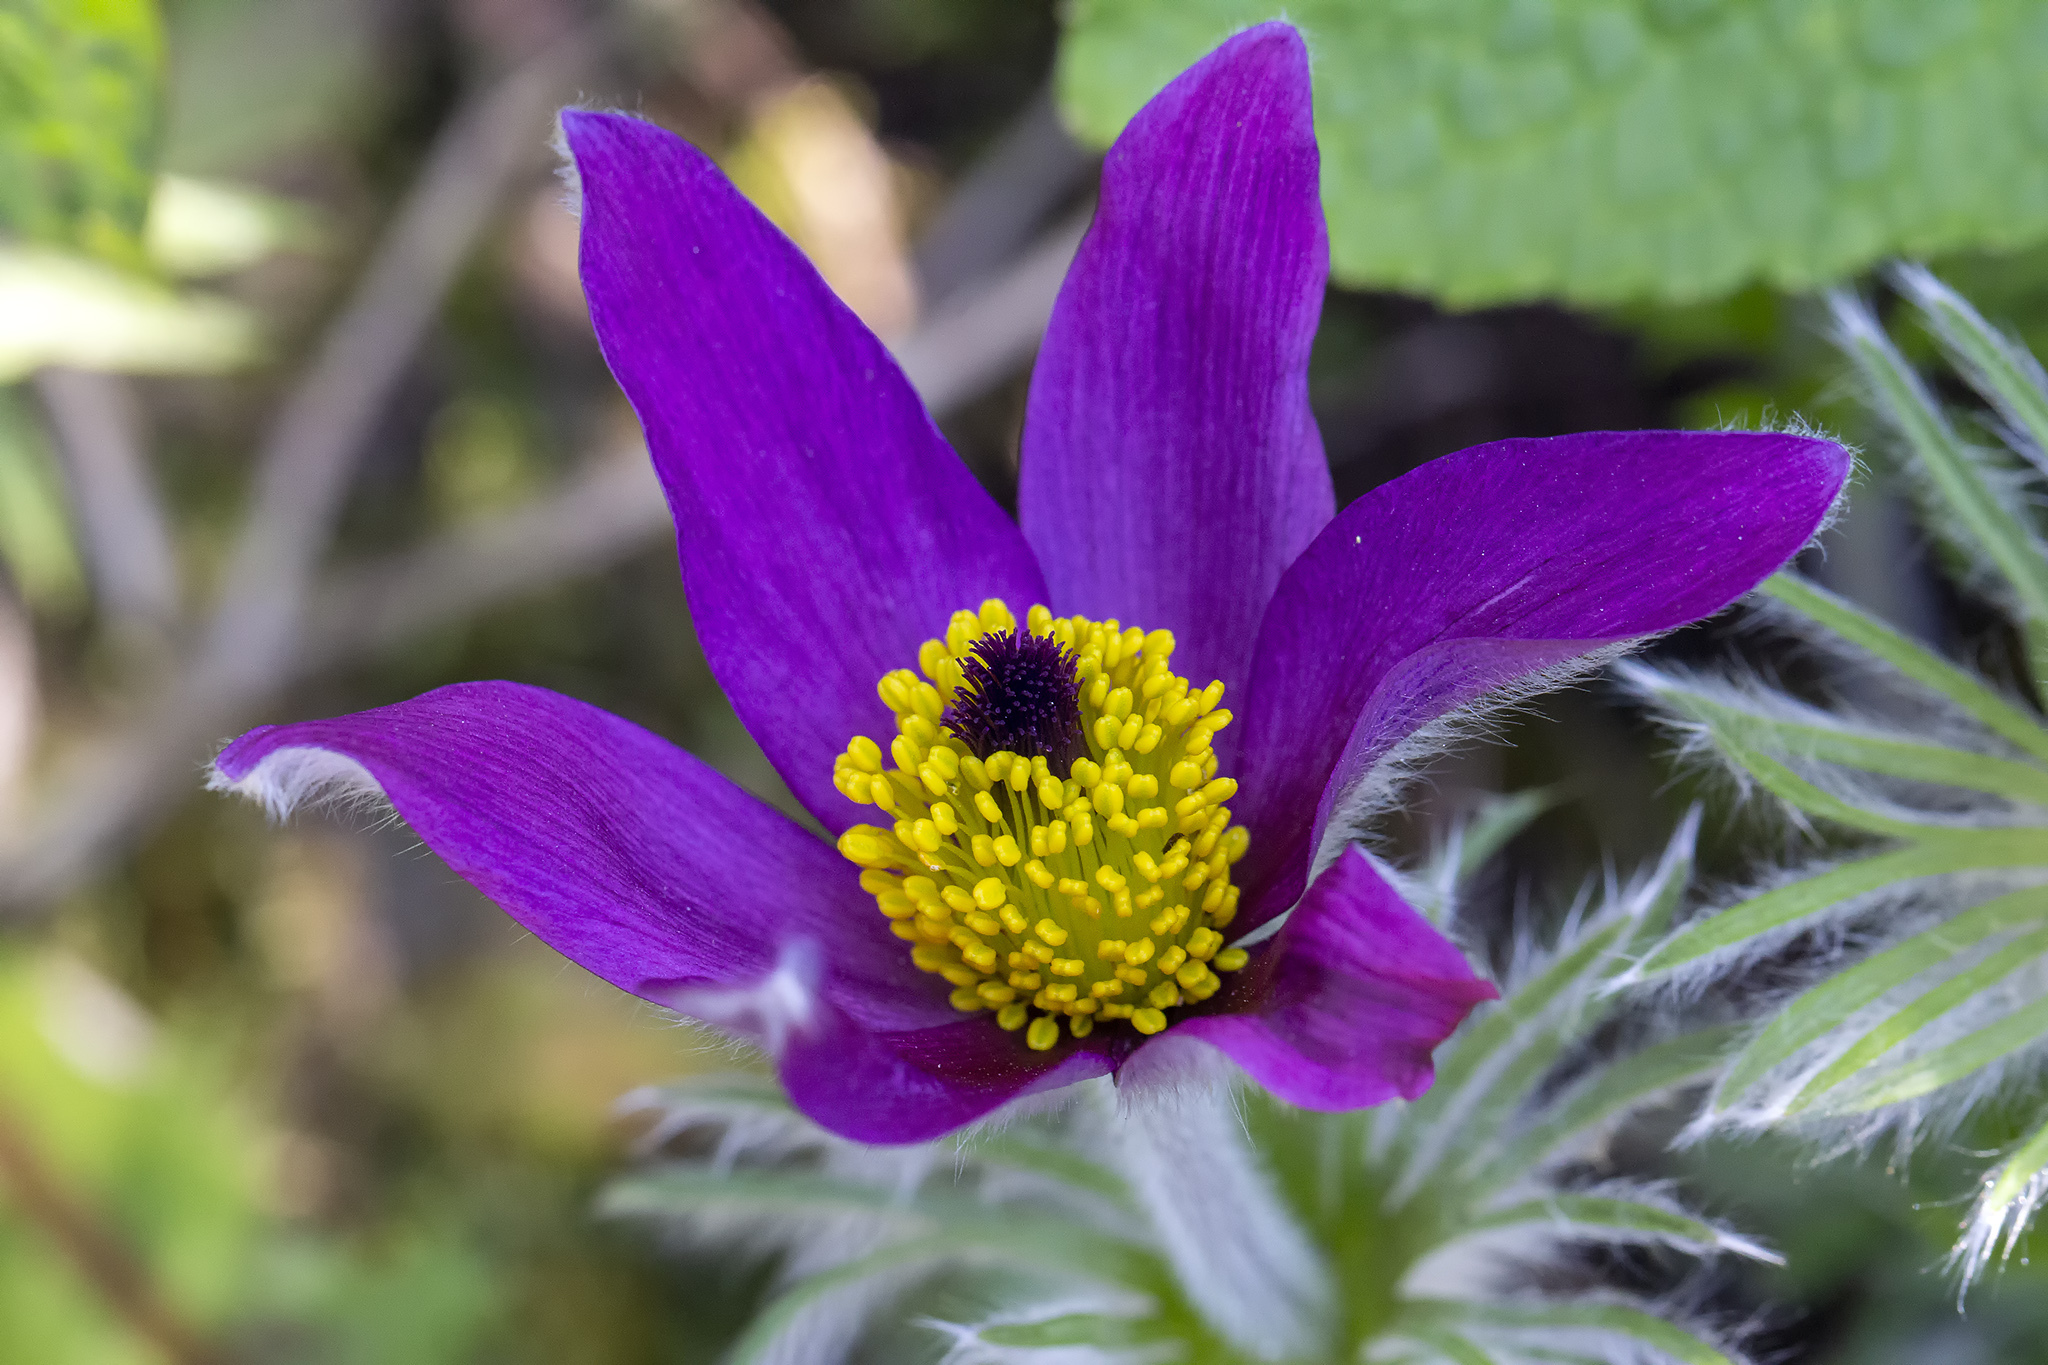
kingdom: Plantae
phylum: Tracheophyta
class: Magnoliopsida
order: Ranunculales
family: Ranunculaceae
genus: Pulsatilla
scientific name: Pulsatilla vulgaris
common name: Pasqueflower
